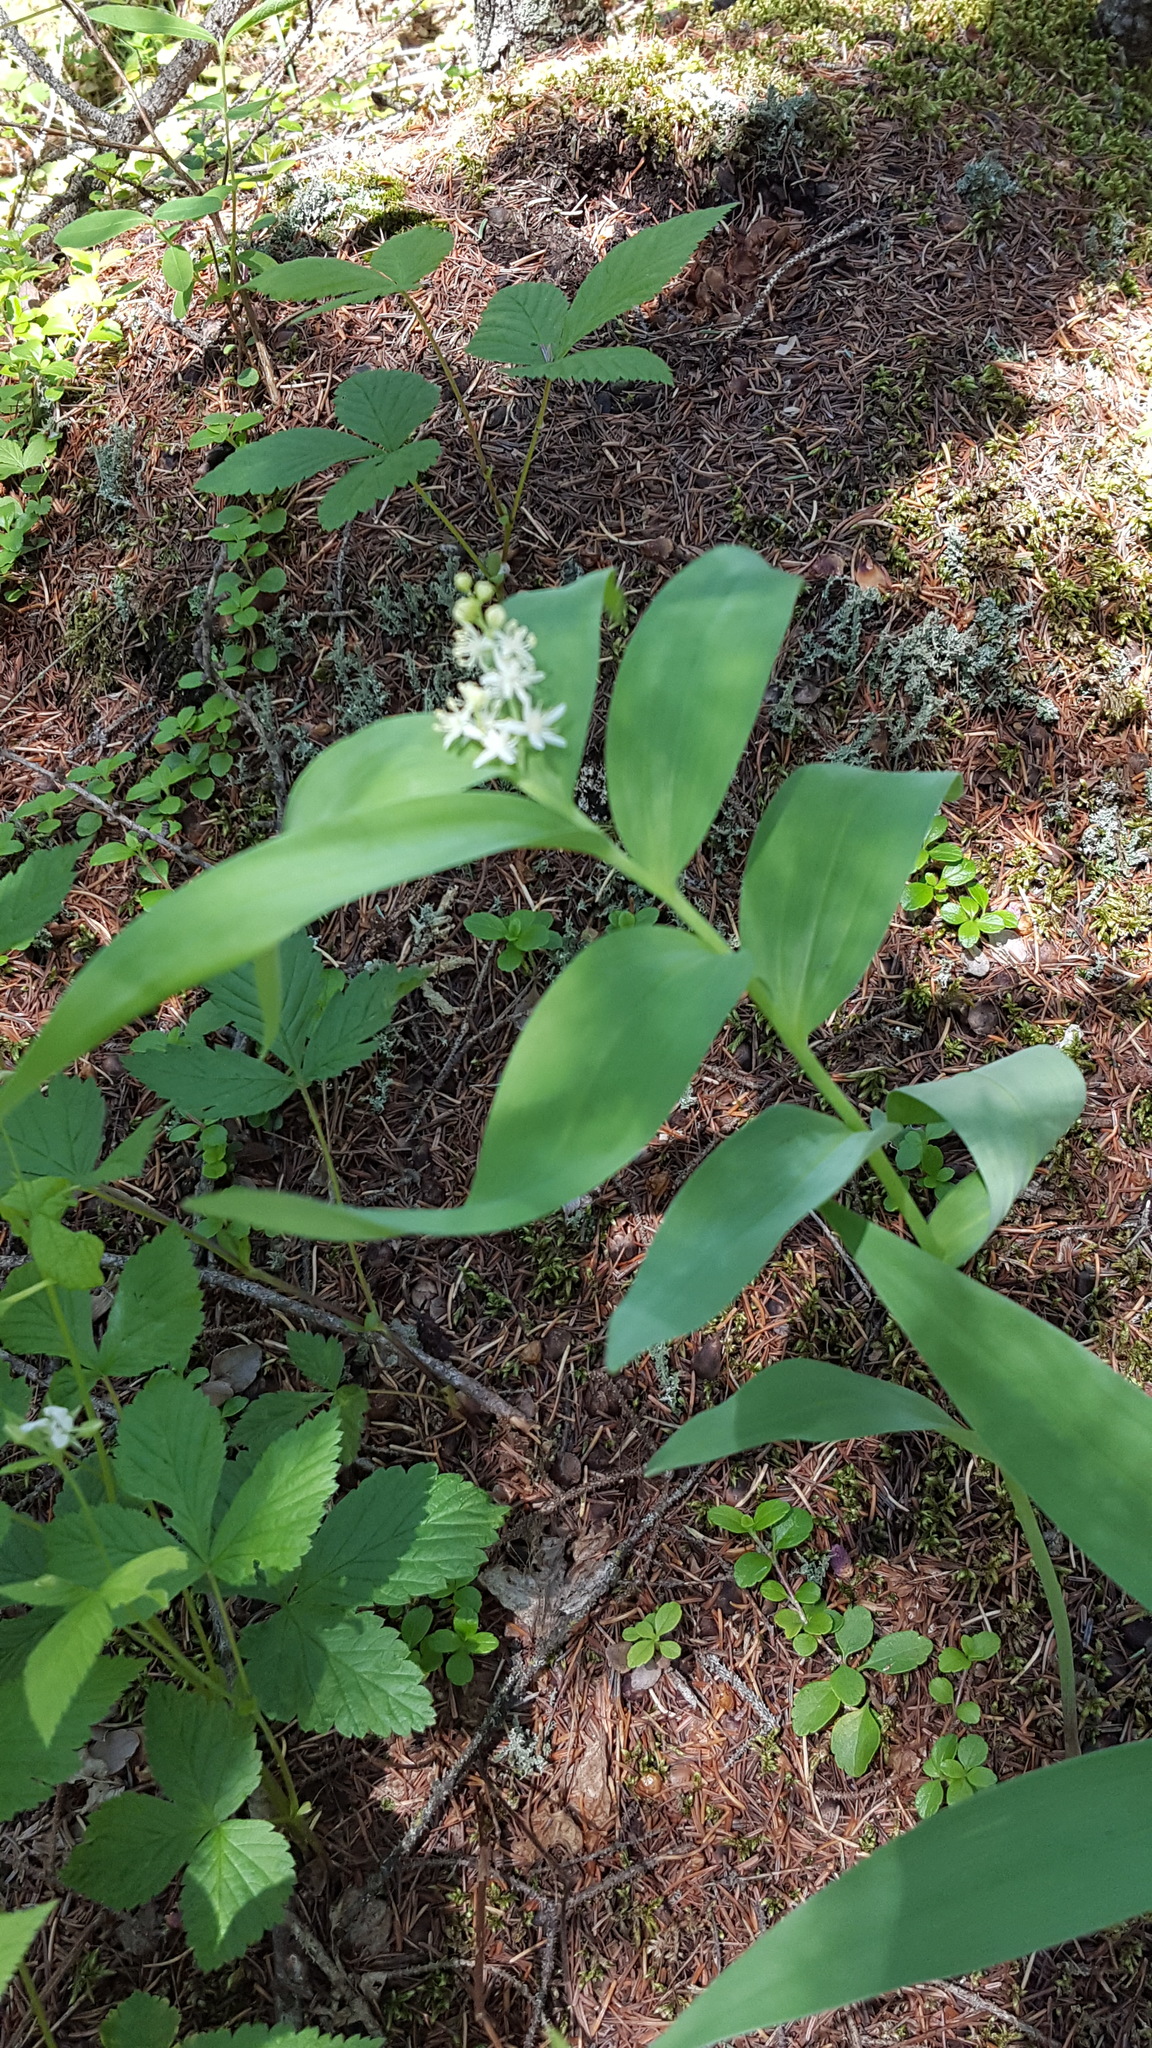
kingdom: Plantae
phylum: Tracheophyta
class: Liliopsida
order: Asparagales
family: Asparagaceae
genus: Maianthemum
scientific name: Maianthemum stellatum
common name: Little false solomon's seal
